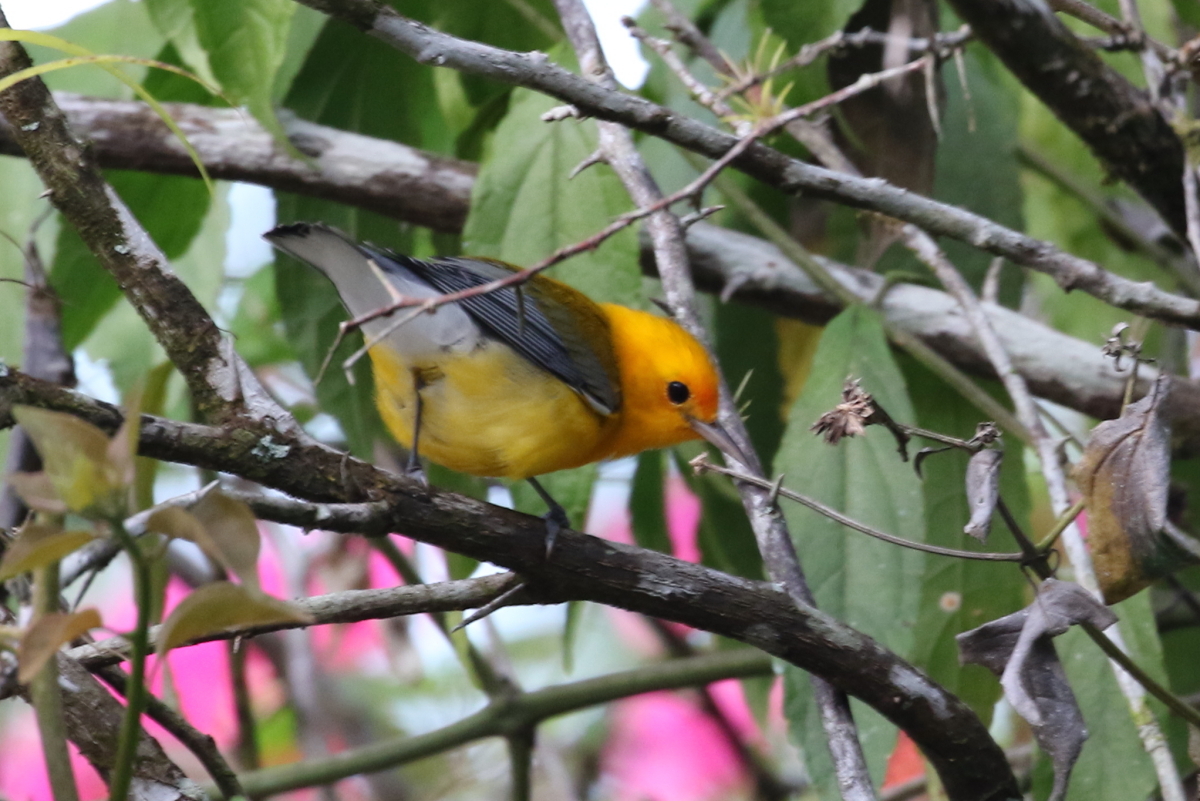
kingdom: Animalia
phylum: Chordata
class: Aves
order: Passeriformes
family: Parulidae
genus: Protonotaria
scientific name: Protonotaria citrea
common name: Prothonotary warbler
